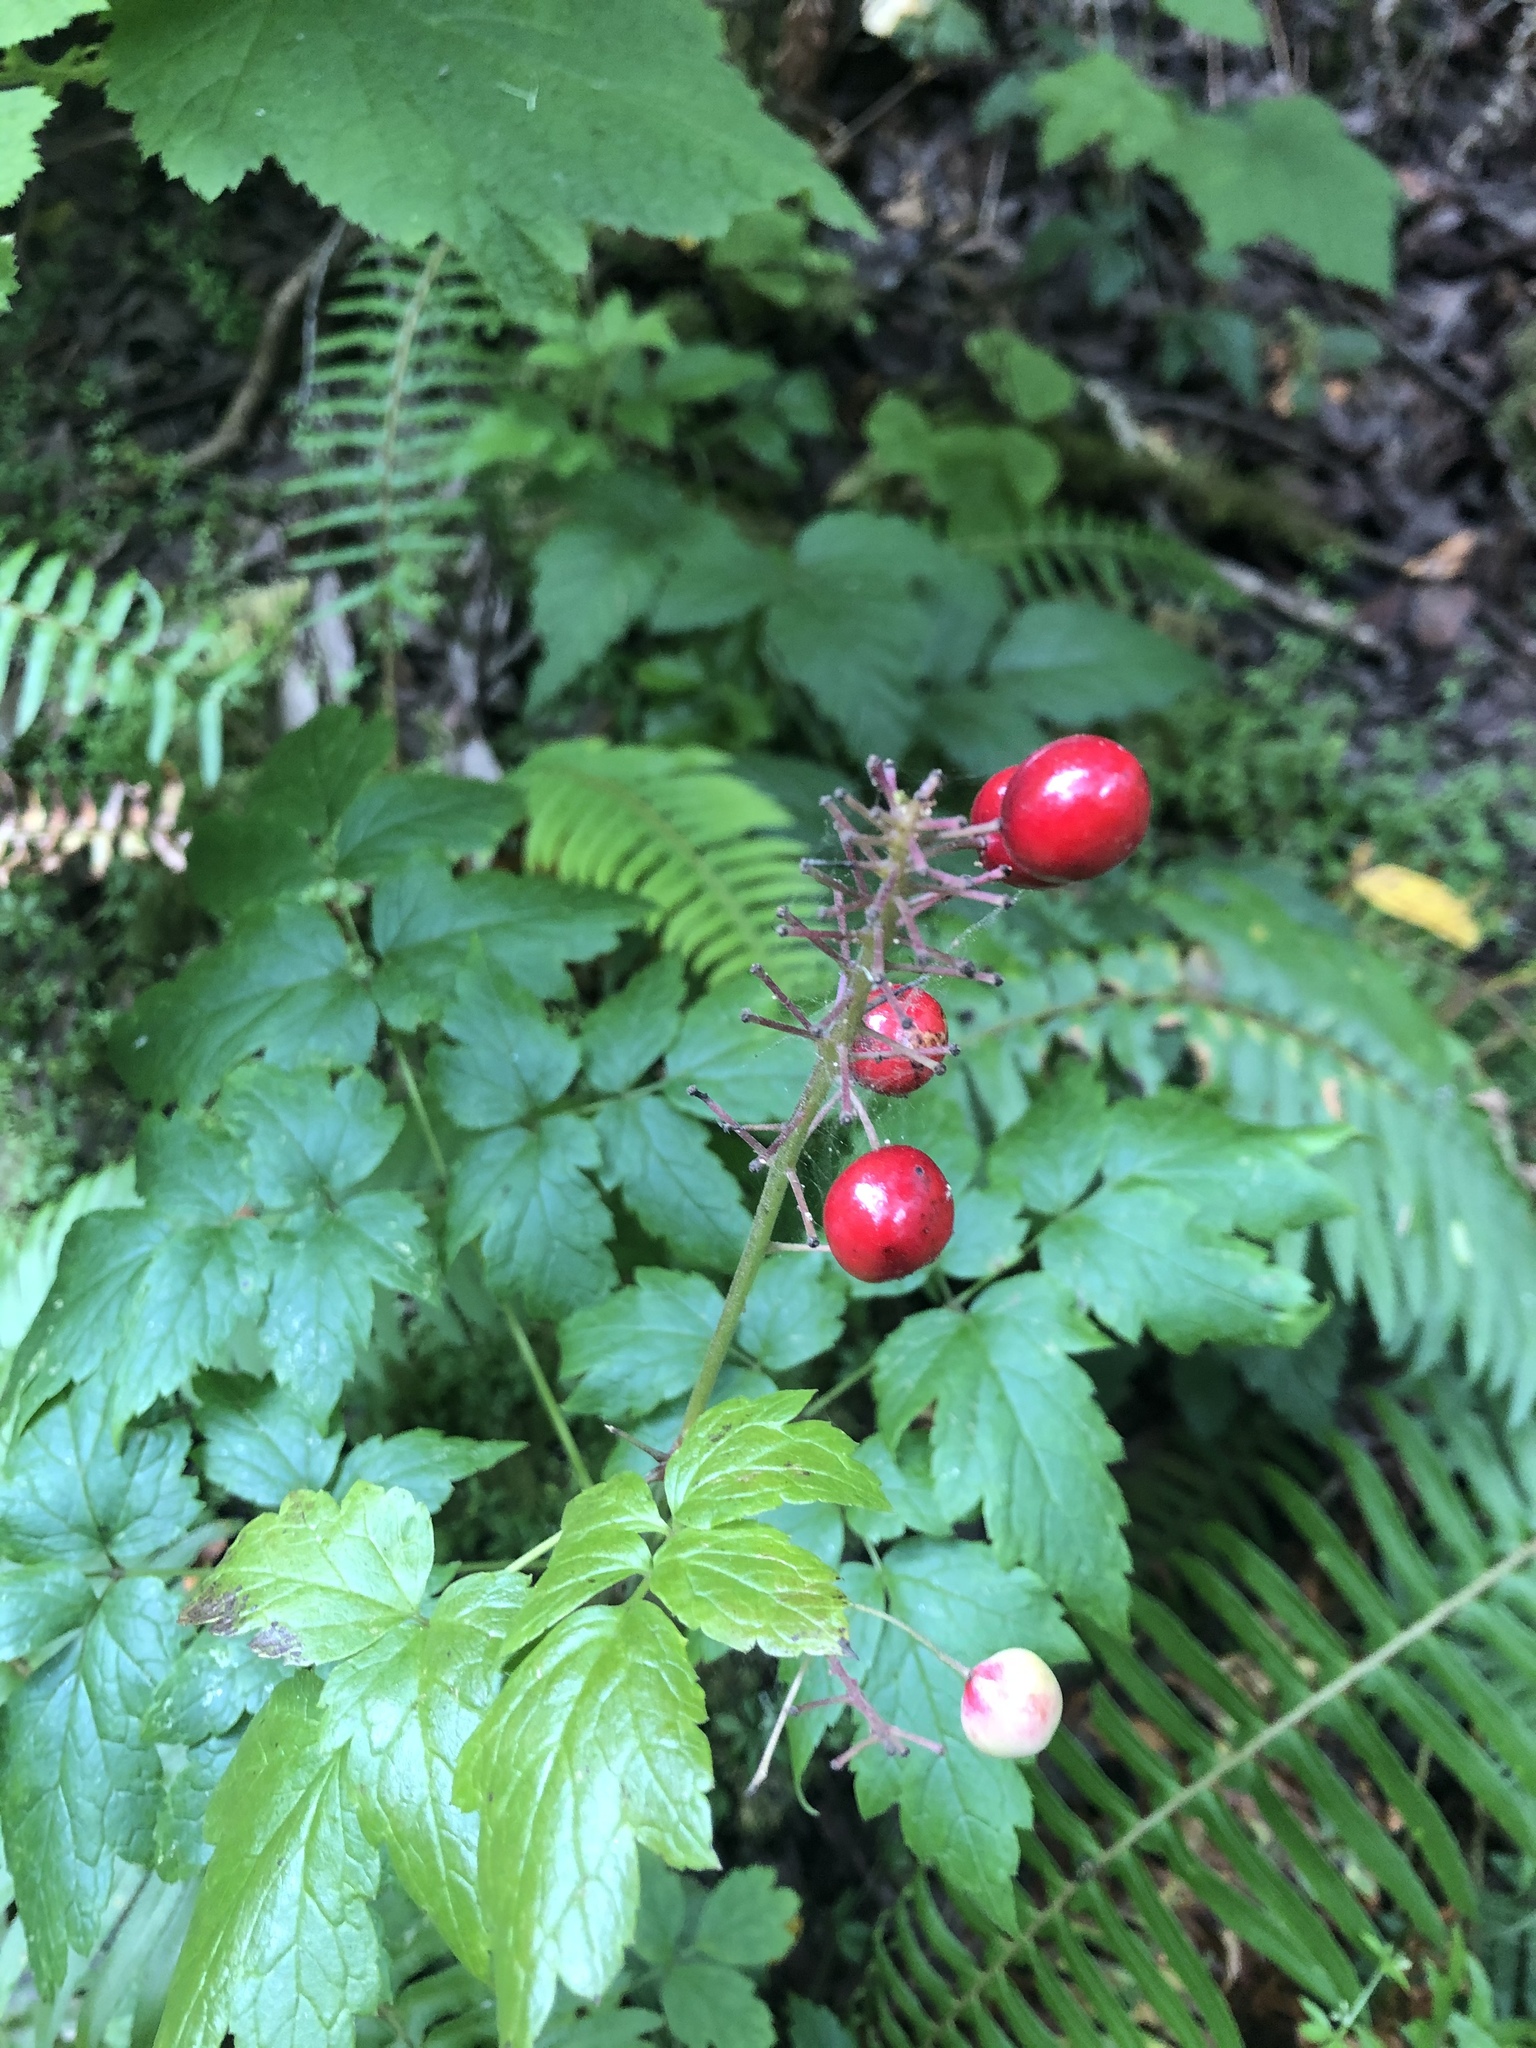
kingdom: Plantae
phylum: Tracheophyta
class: Magnoliopsida
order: Ranunculales
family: Ranunculaceae
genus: Actaea
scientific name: Actaea rubra
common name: Red baneberry
